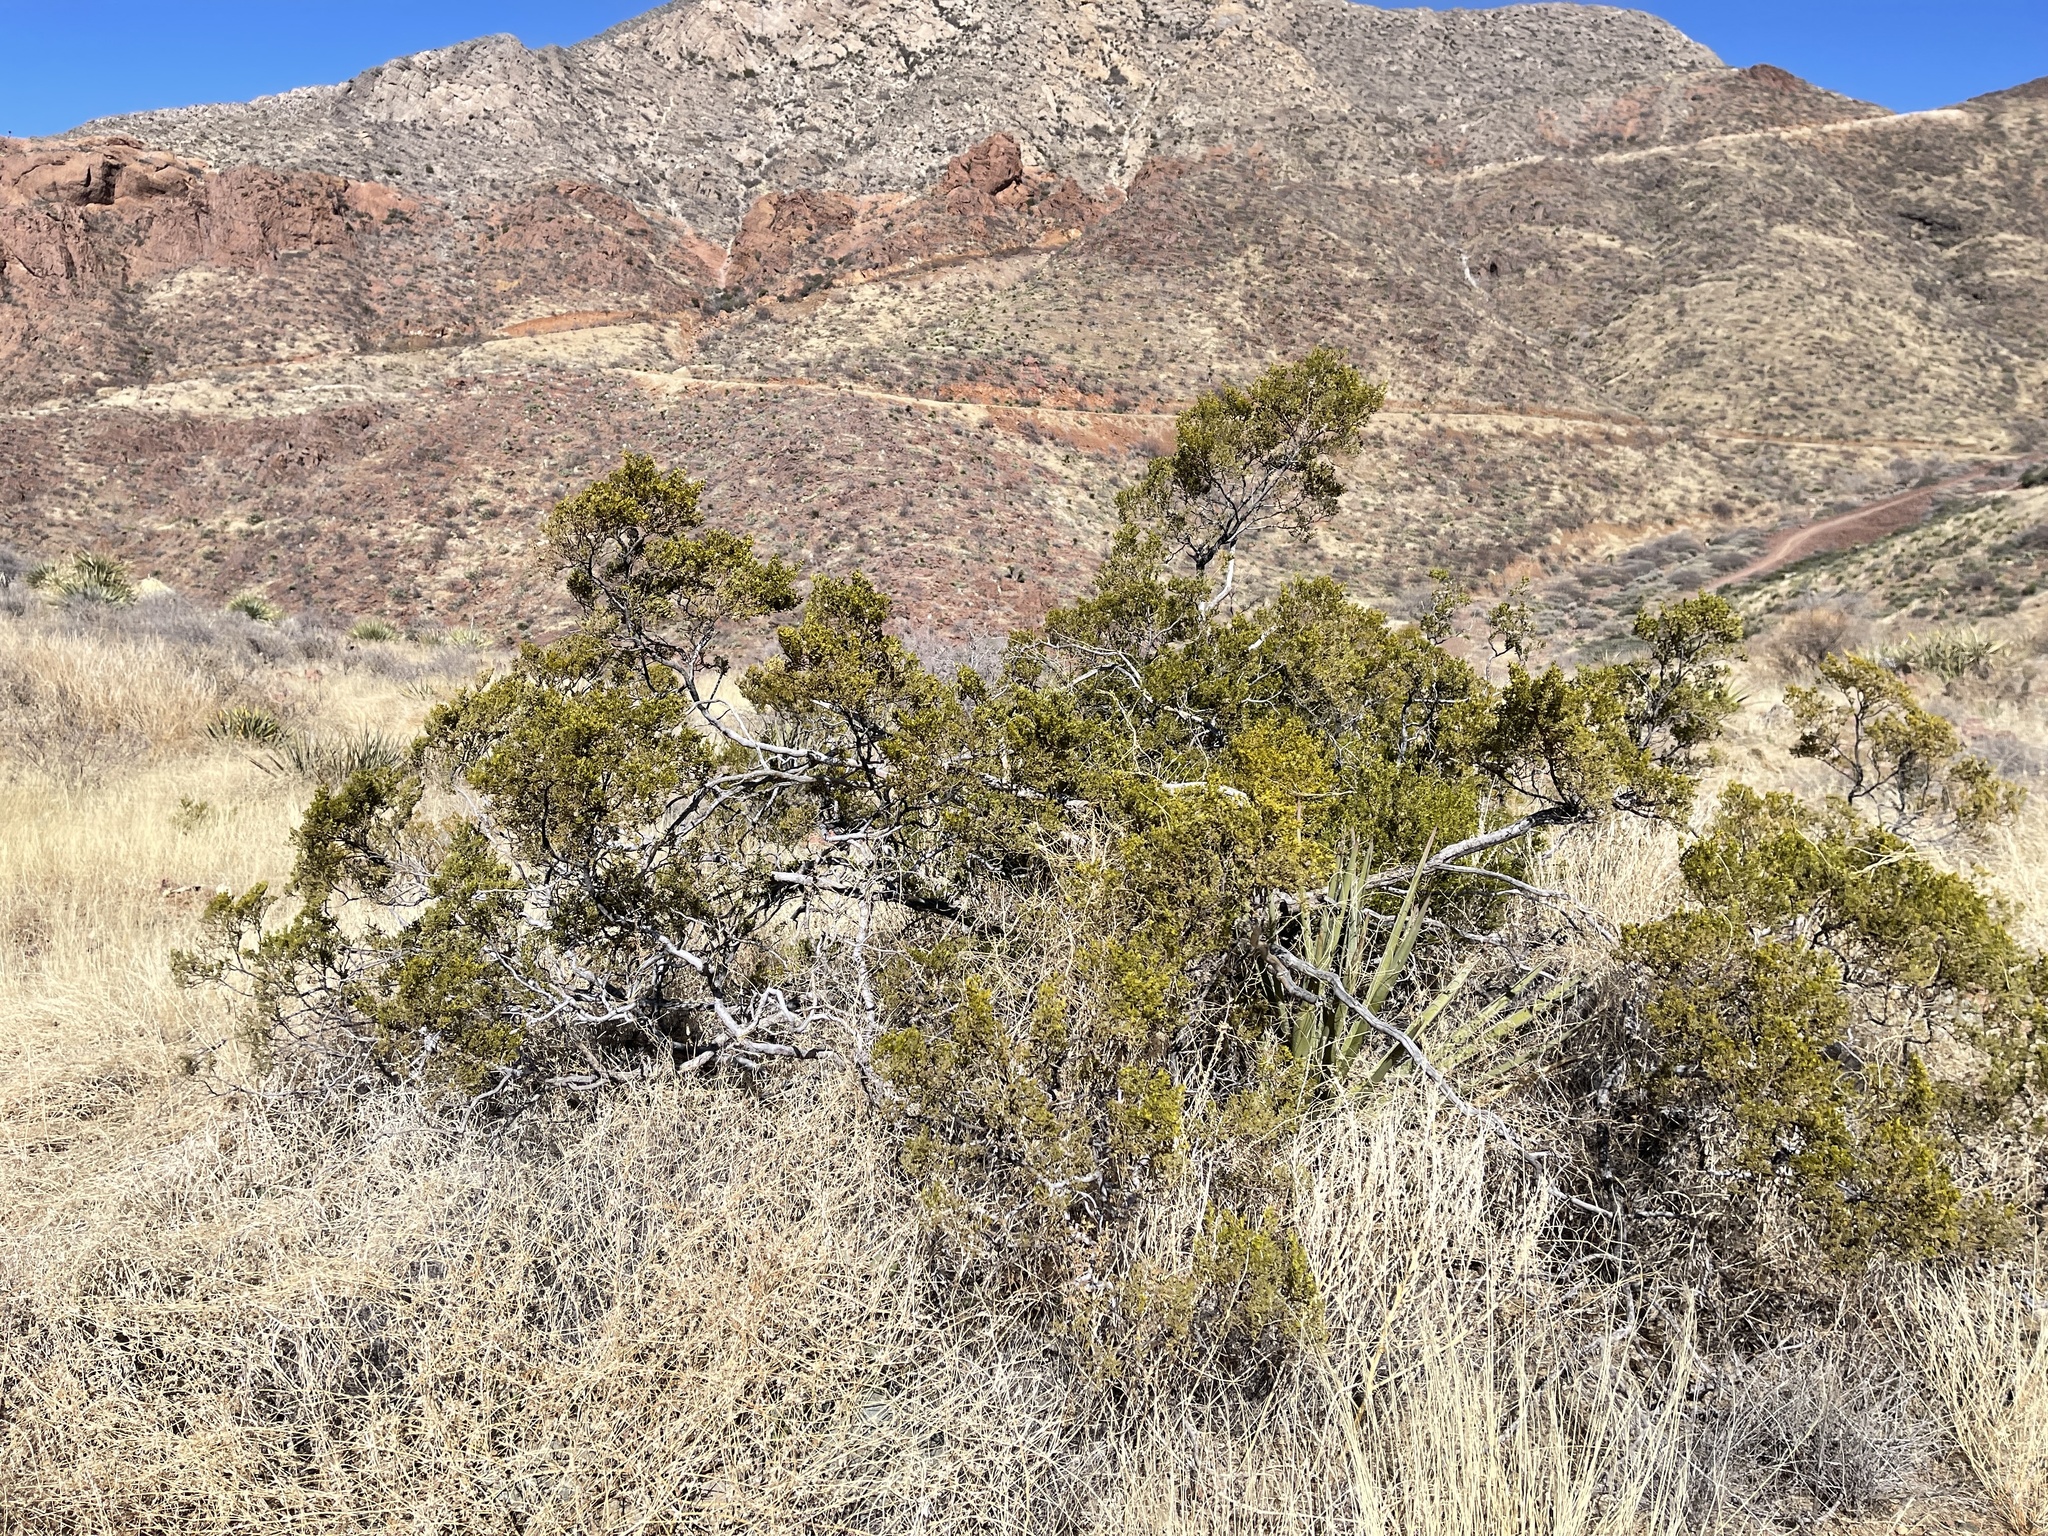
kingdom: Plantae
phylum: Tracheophyta
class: Magnoliopsida
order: Zygophyllales
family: Zygophyllaceae
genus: Larrea
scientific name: Larrea tridentata
